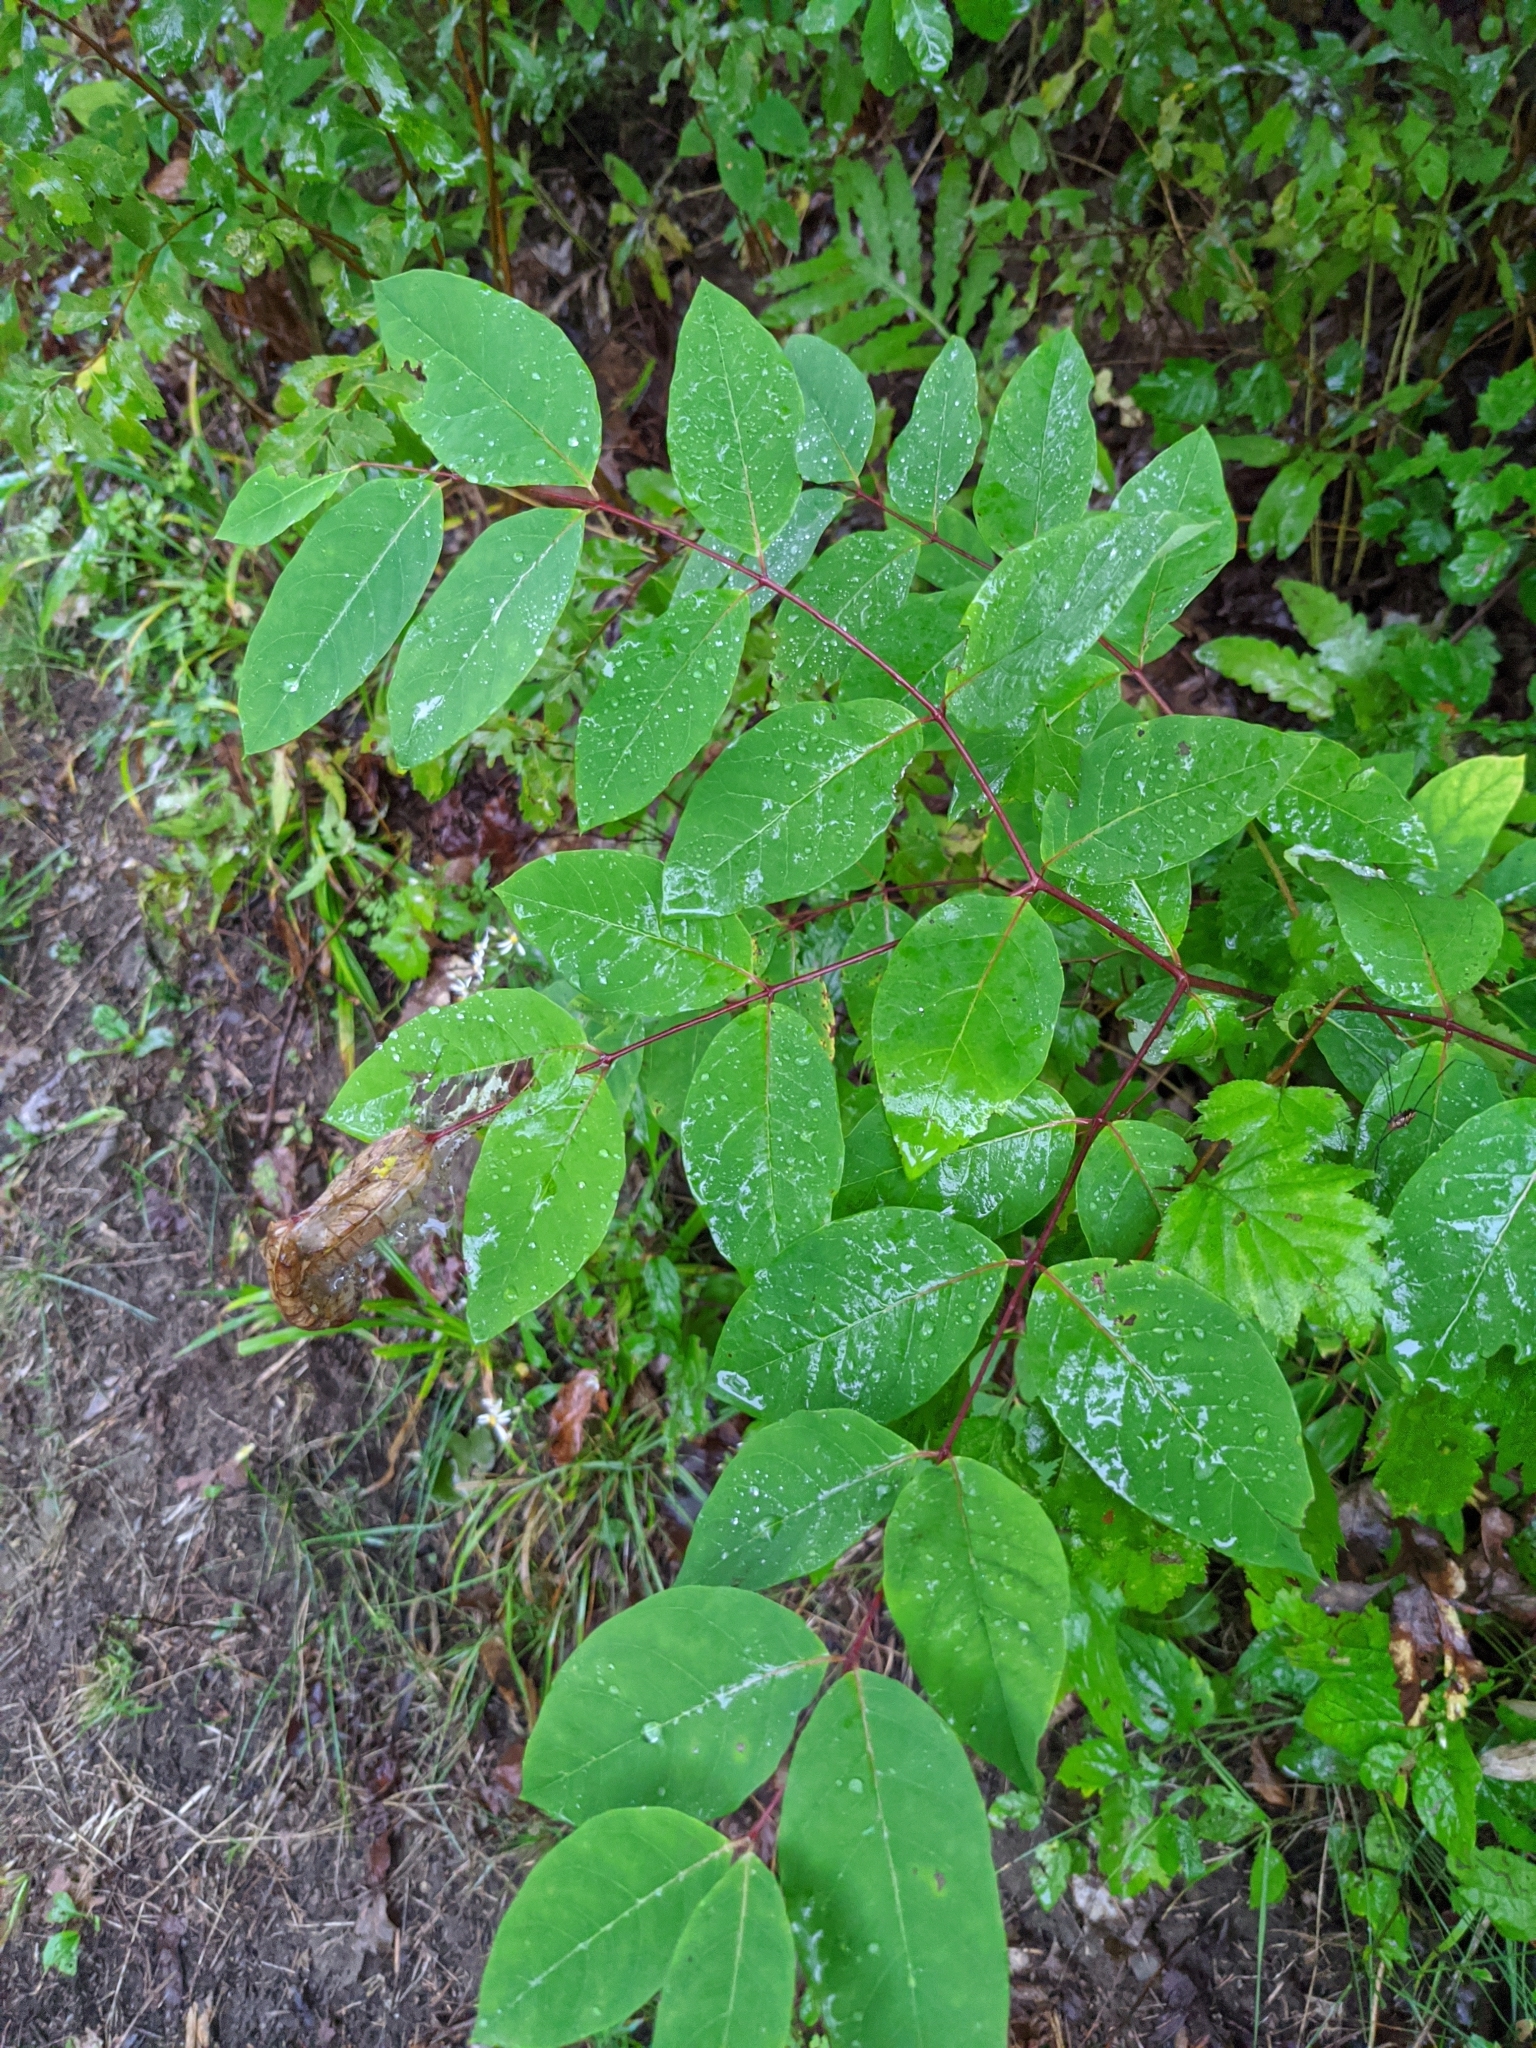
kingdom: Plantae
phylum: Tracheophyta
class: Magnoliopsida
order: Gentianales
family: Apocynaceae
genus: Apocynum
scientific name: Apocynum androsaemifolium
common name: Spreading dogbane
